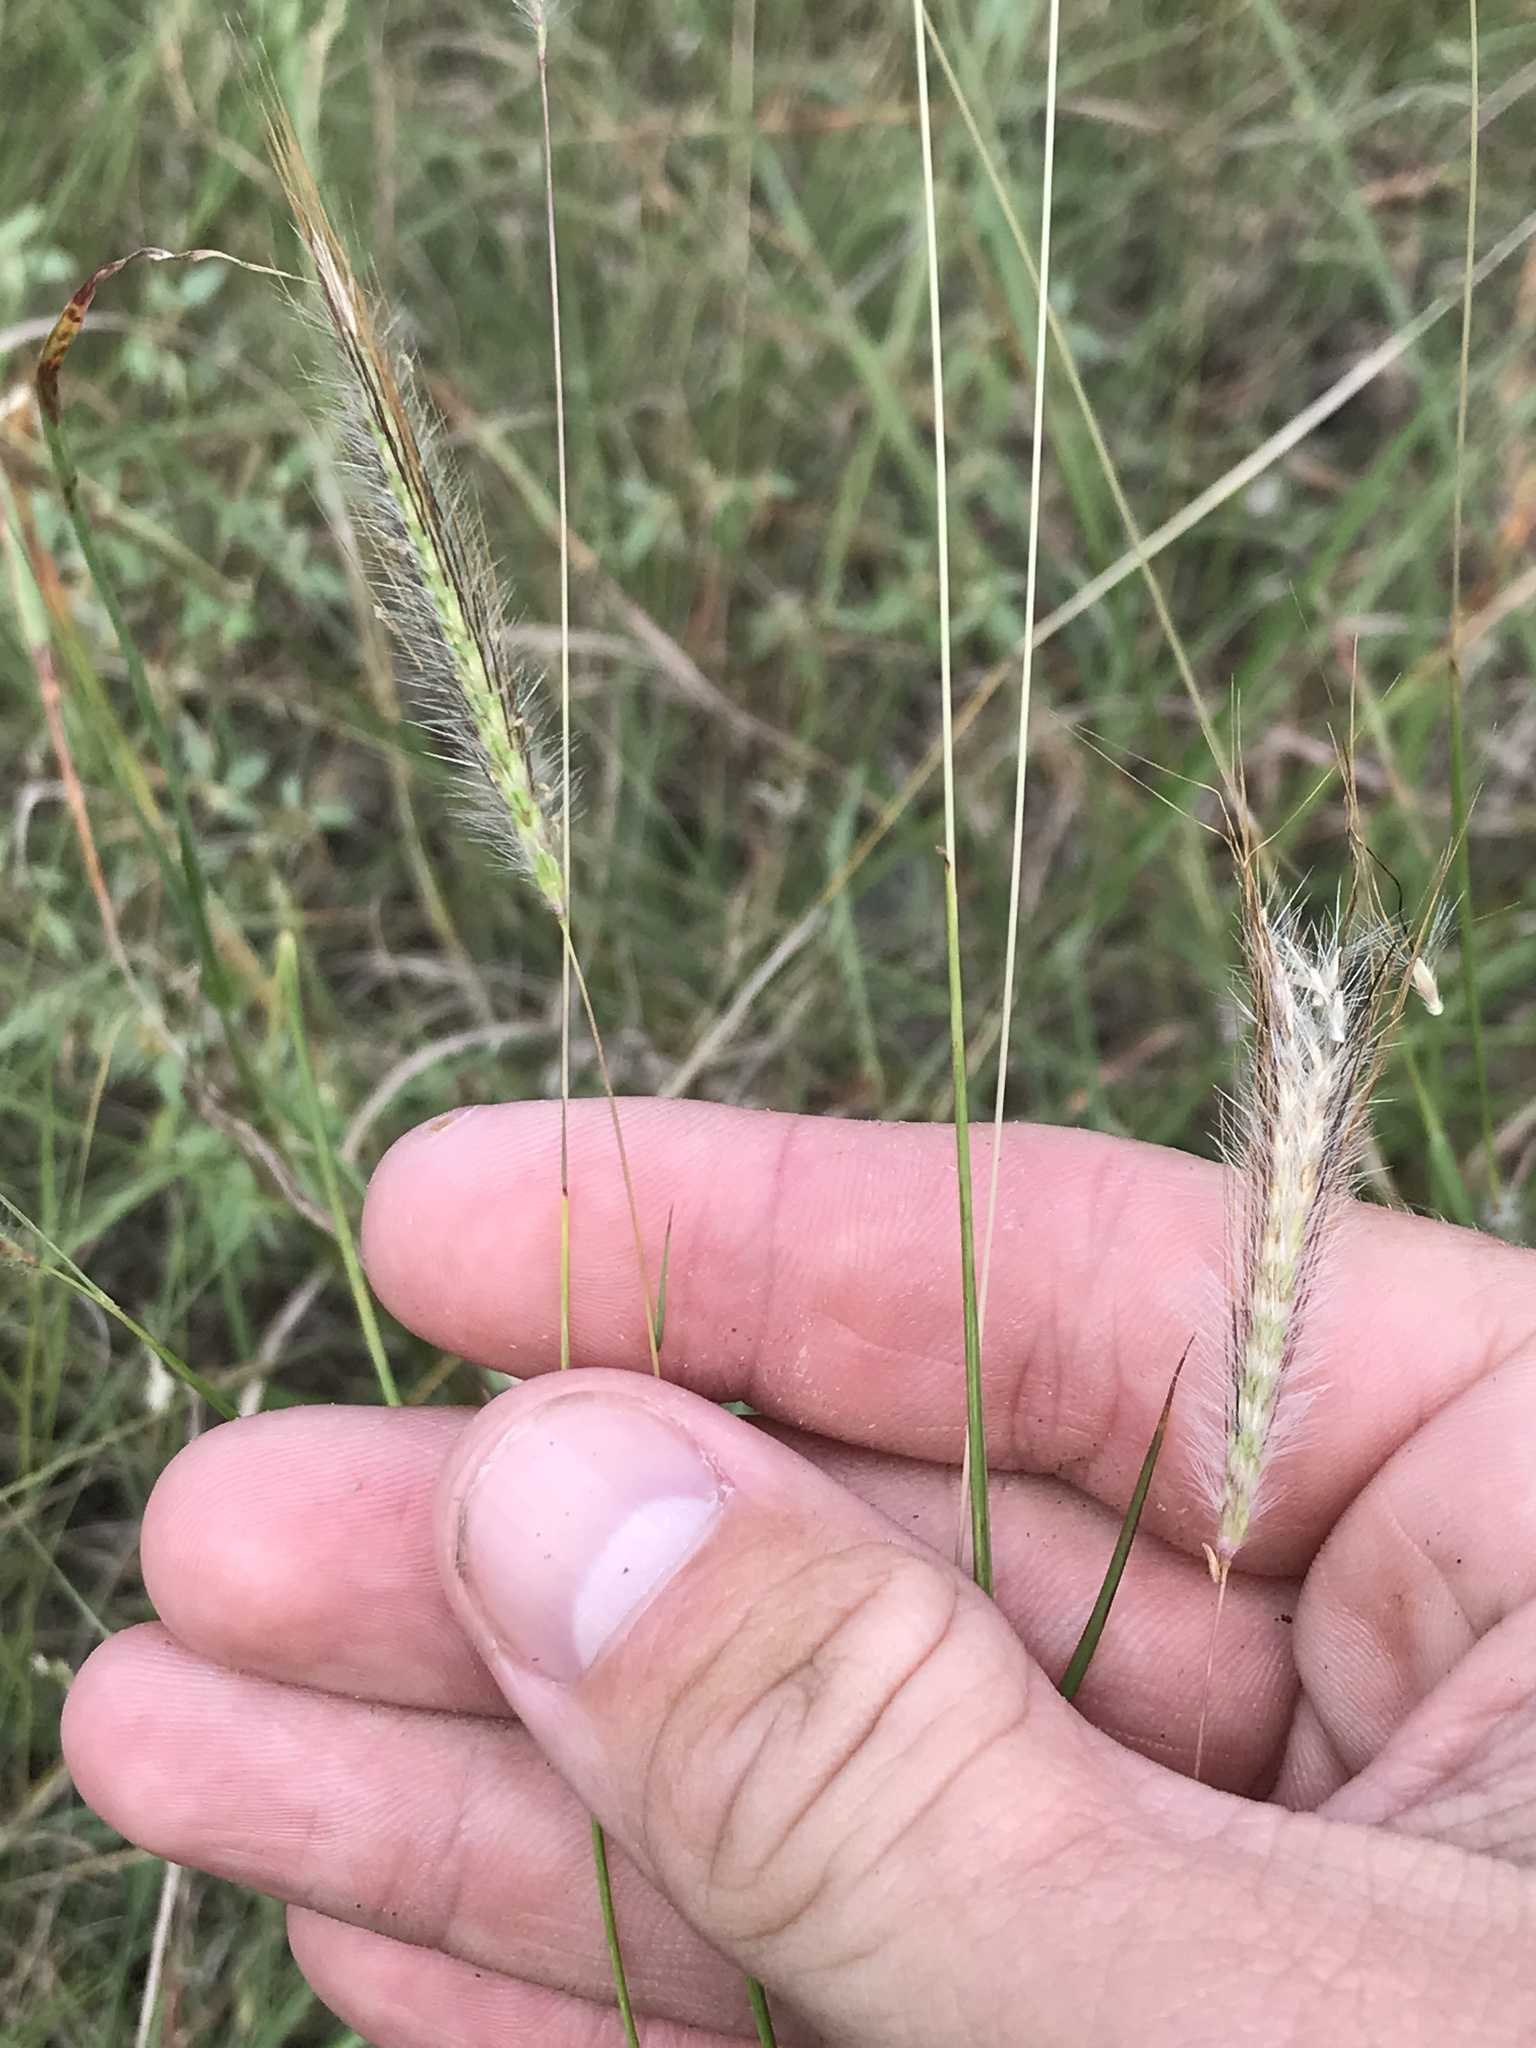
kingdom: Plantae
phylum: Tracheophyta
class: Liliopsida
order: Poales
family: Poaceae
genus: Dichanthium
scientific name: Dichanthium sericeum
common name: Silky bluestem
